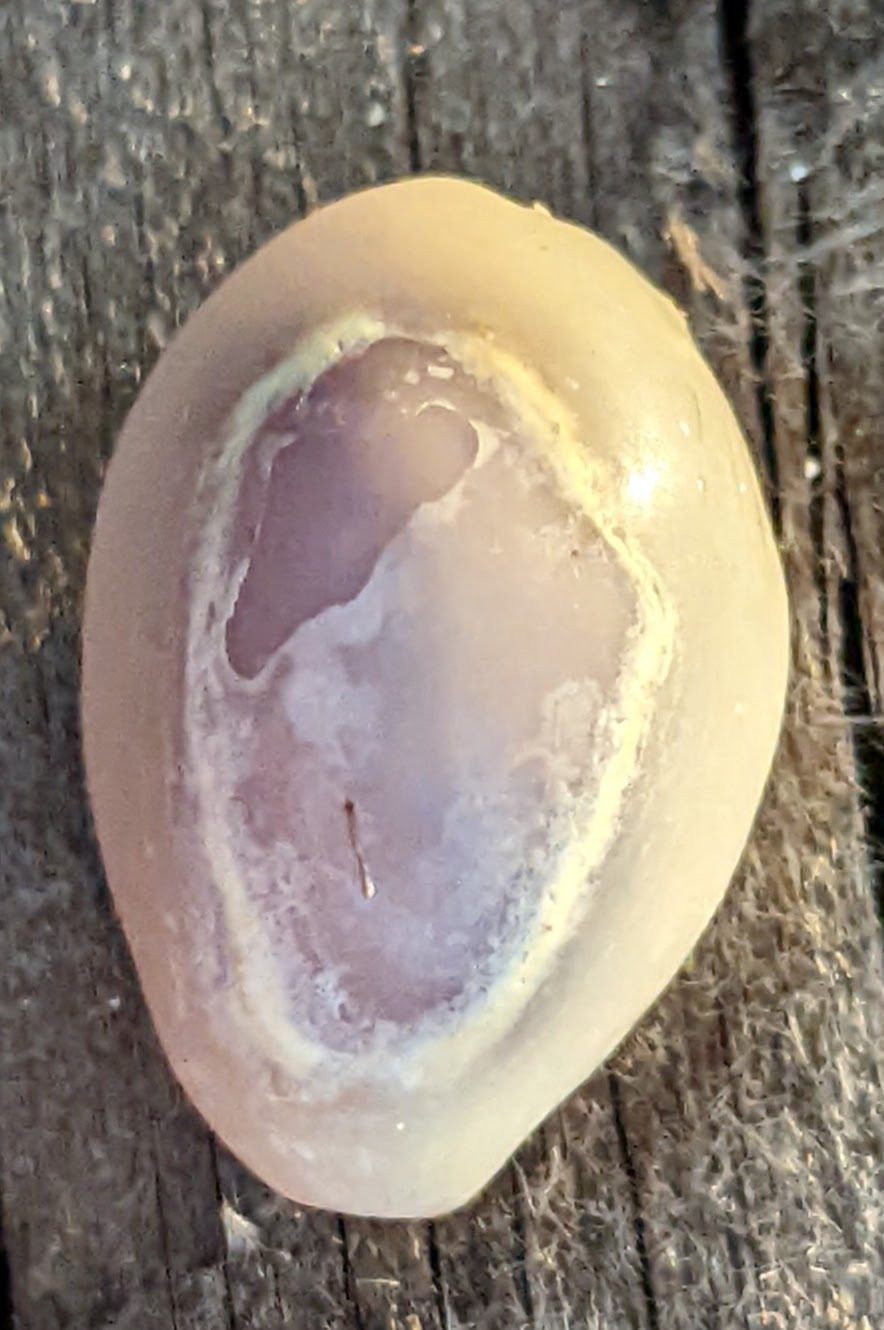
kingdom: Animalia
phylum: Mollusca
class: Gastropoda
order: Littorinimorpha
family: Cypraeidae
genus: Monetaria
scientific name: Monetaria annulus
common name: Ring cowrie
